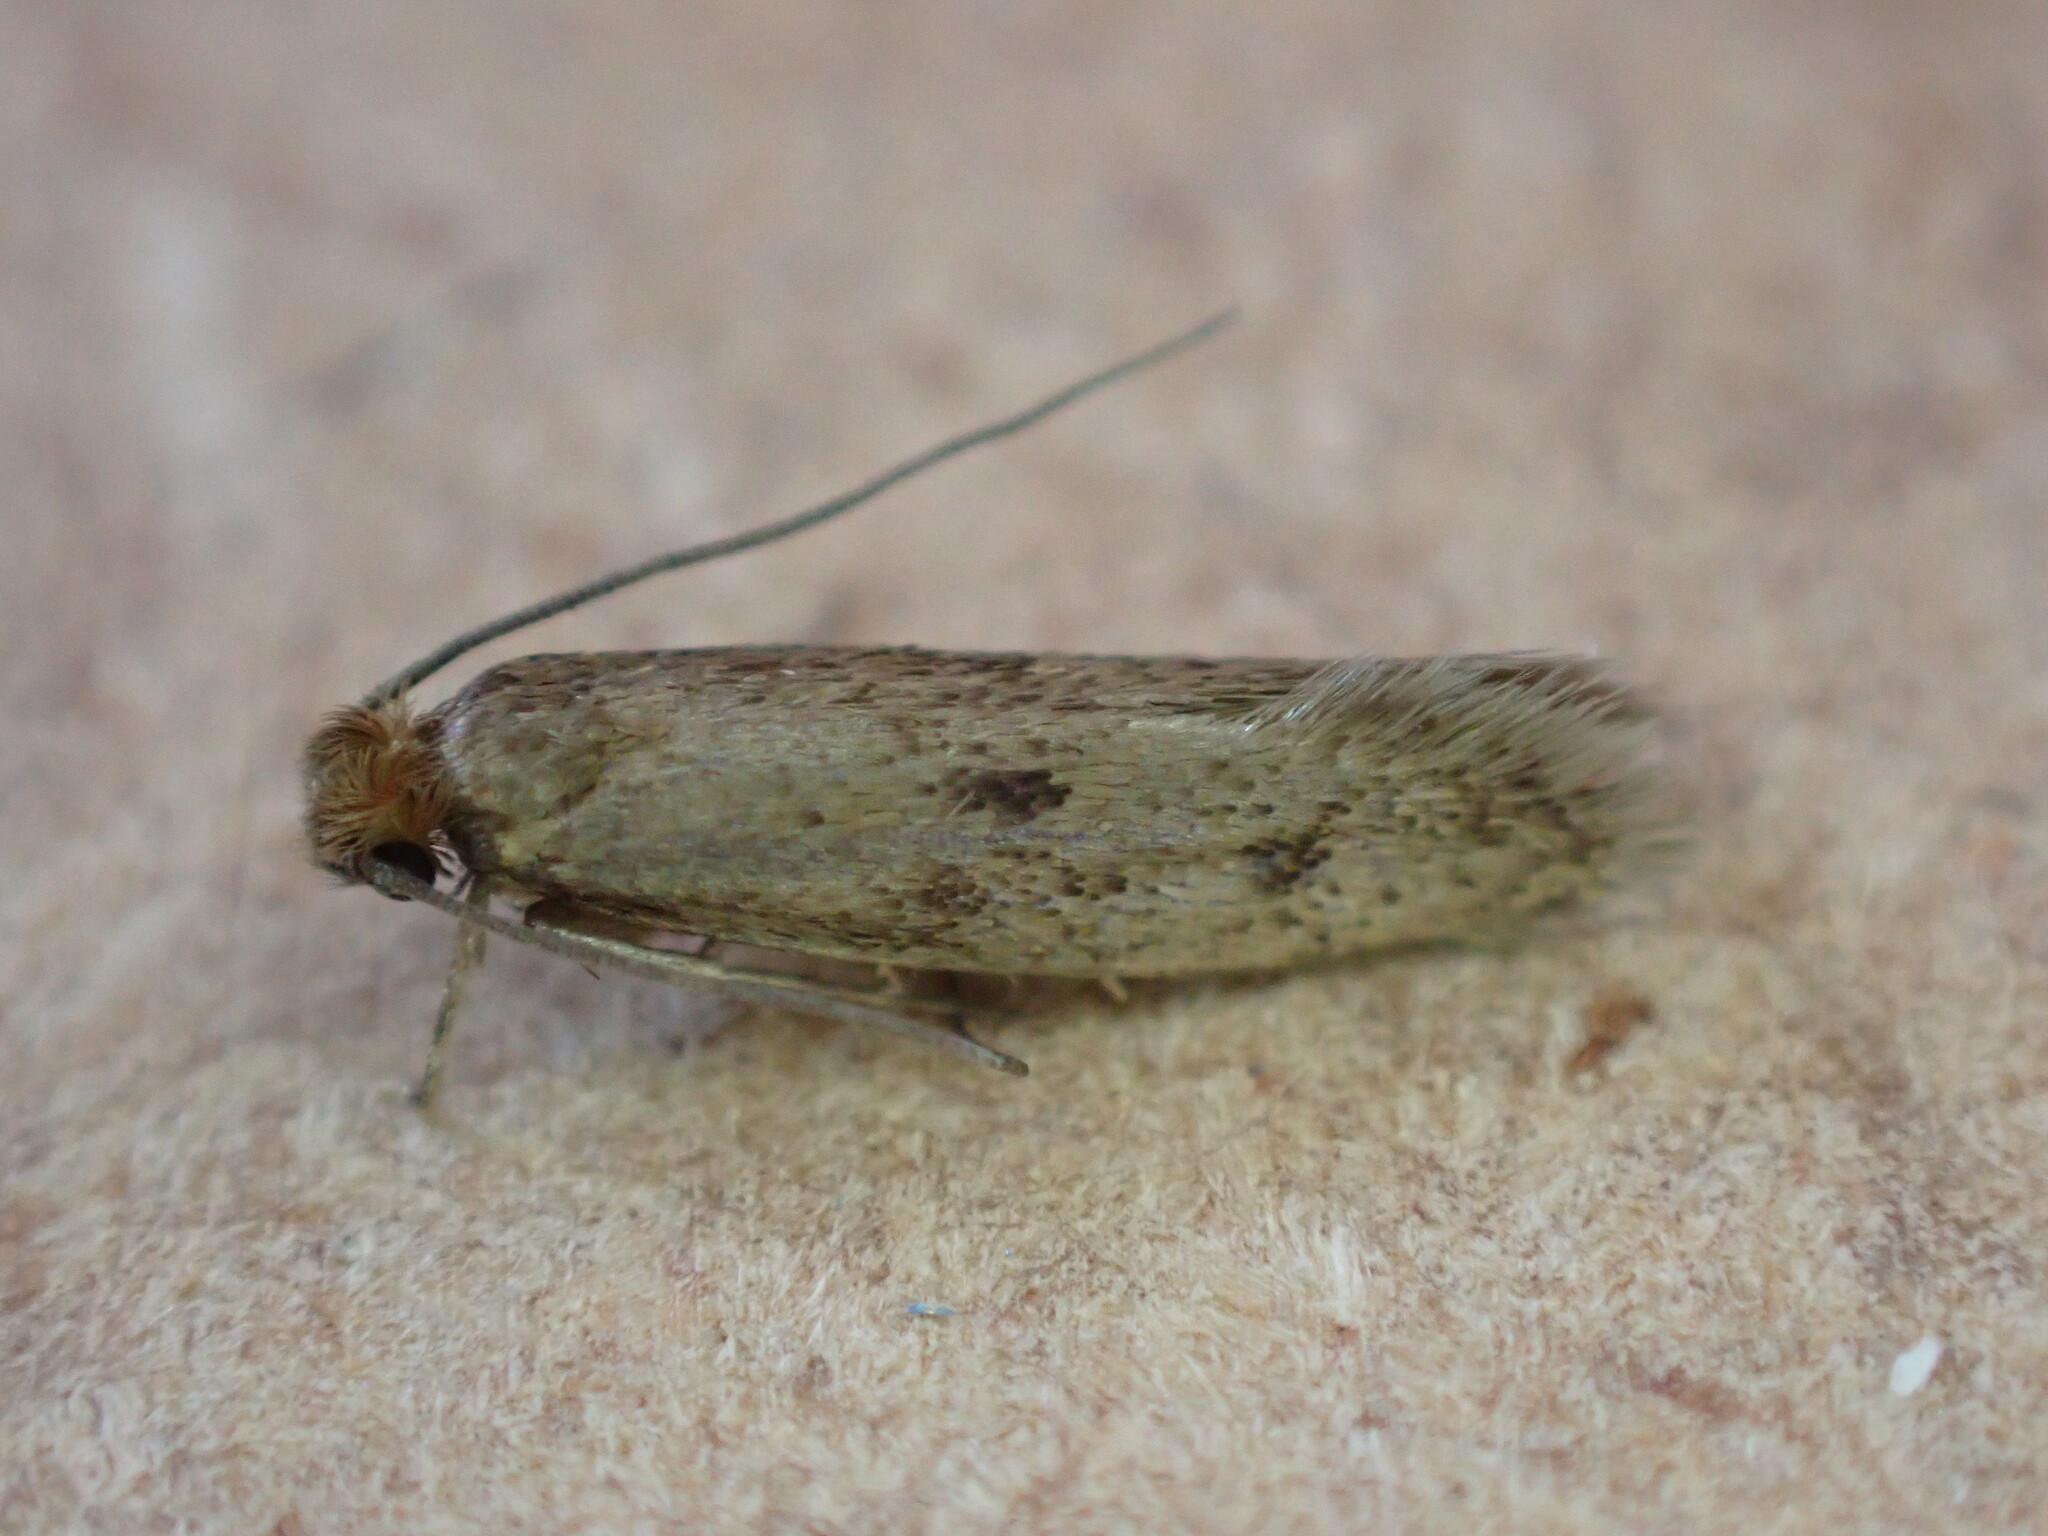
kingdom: Animalia
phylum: Arthropoda
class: Insecta
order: Lepidoptera
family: Tineidae
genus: Tinea
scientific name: Tinea pellionella
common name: Case-making clothes moth
